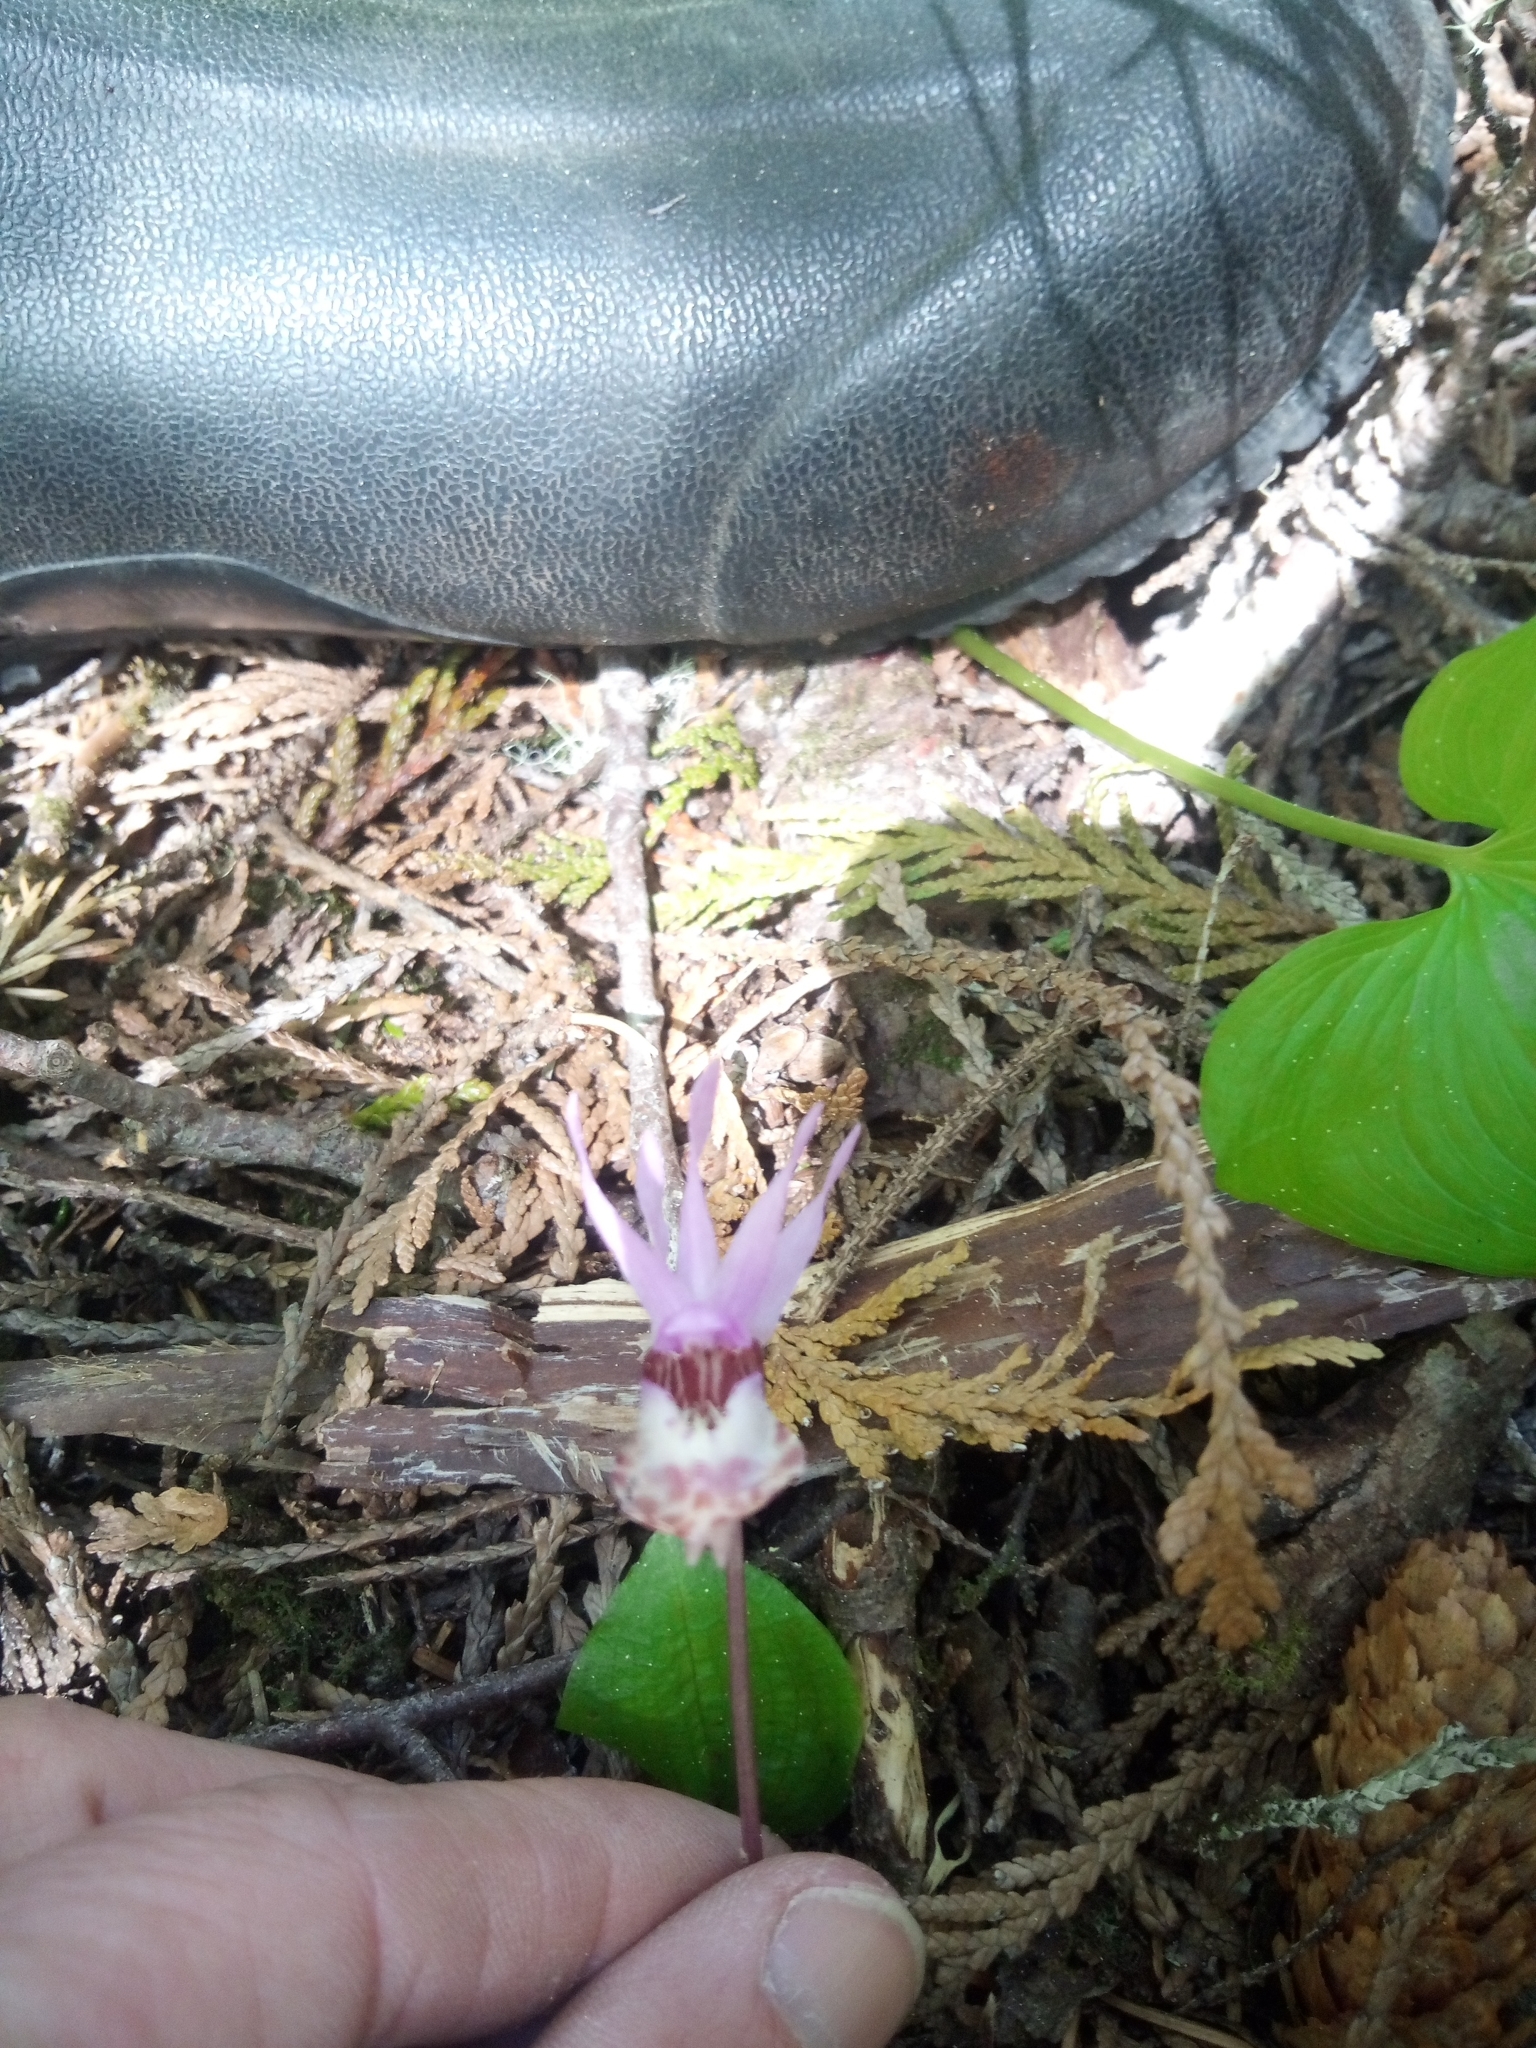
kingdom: Plantae
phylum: Tracheophyta
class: Liliopsida
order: Asparagales
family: Orchidaceae
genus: Calypso
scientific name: Calypso bulbosa
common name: Calypso
